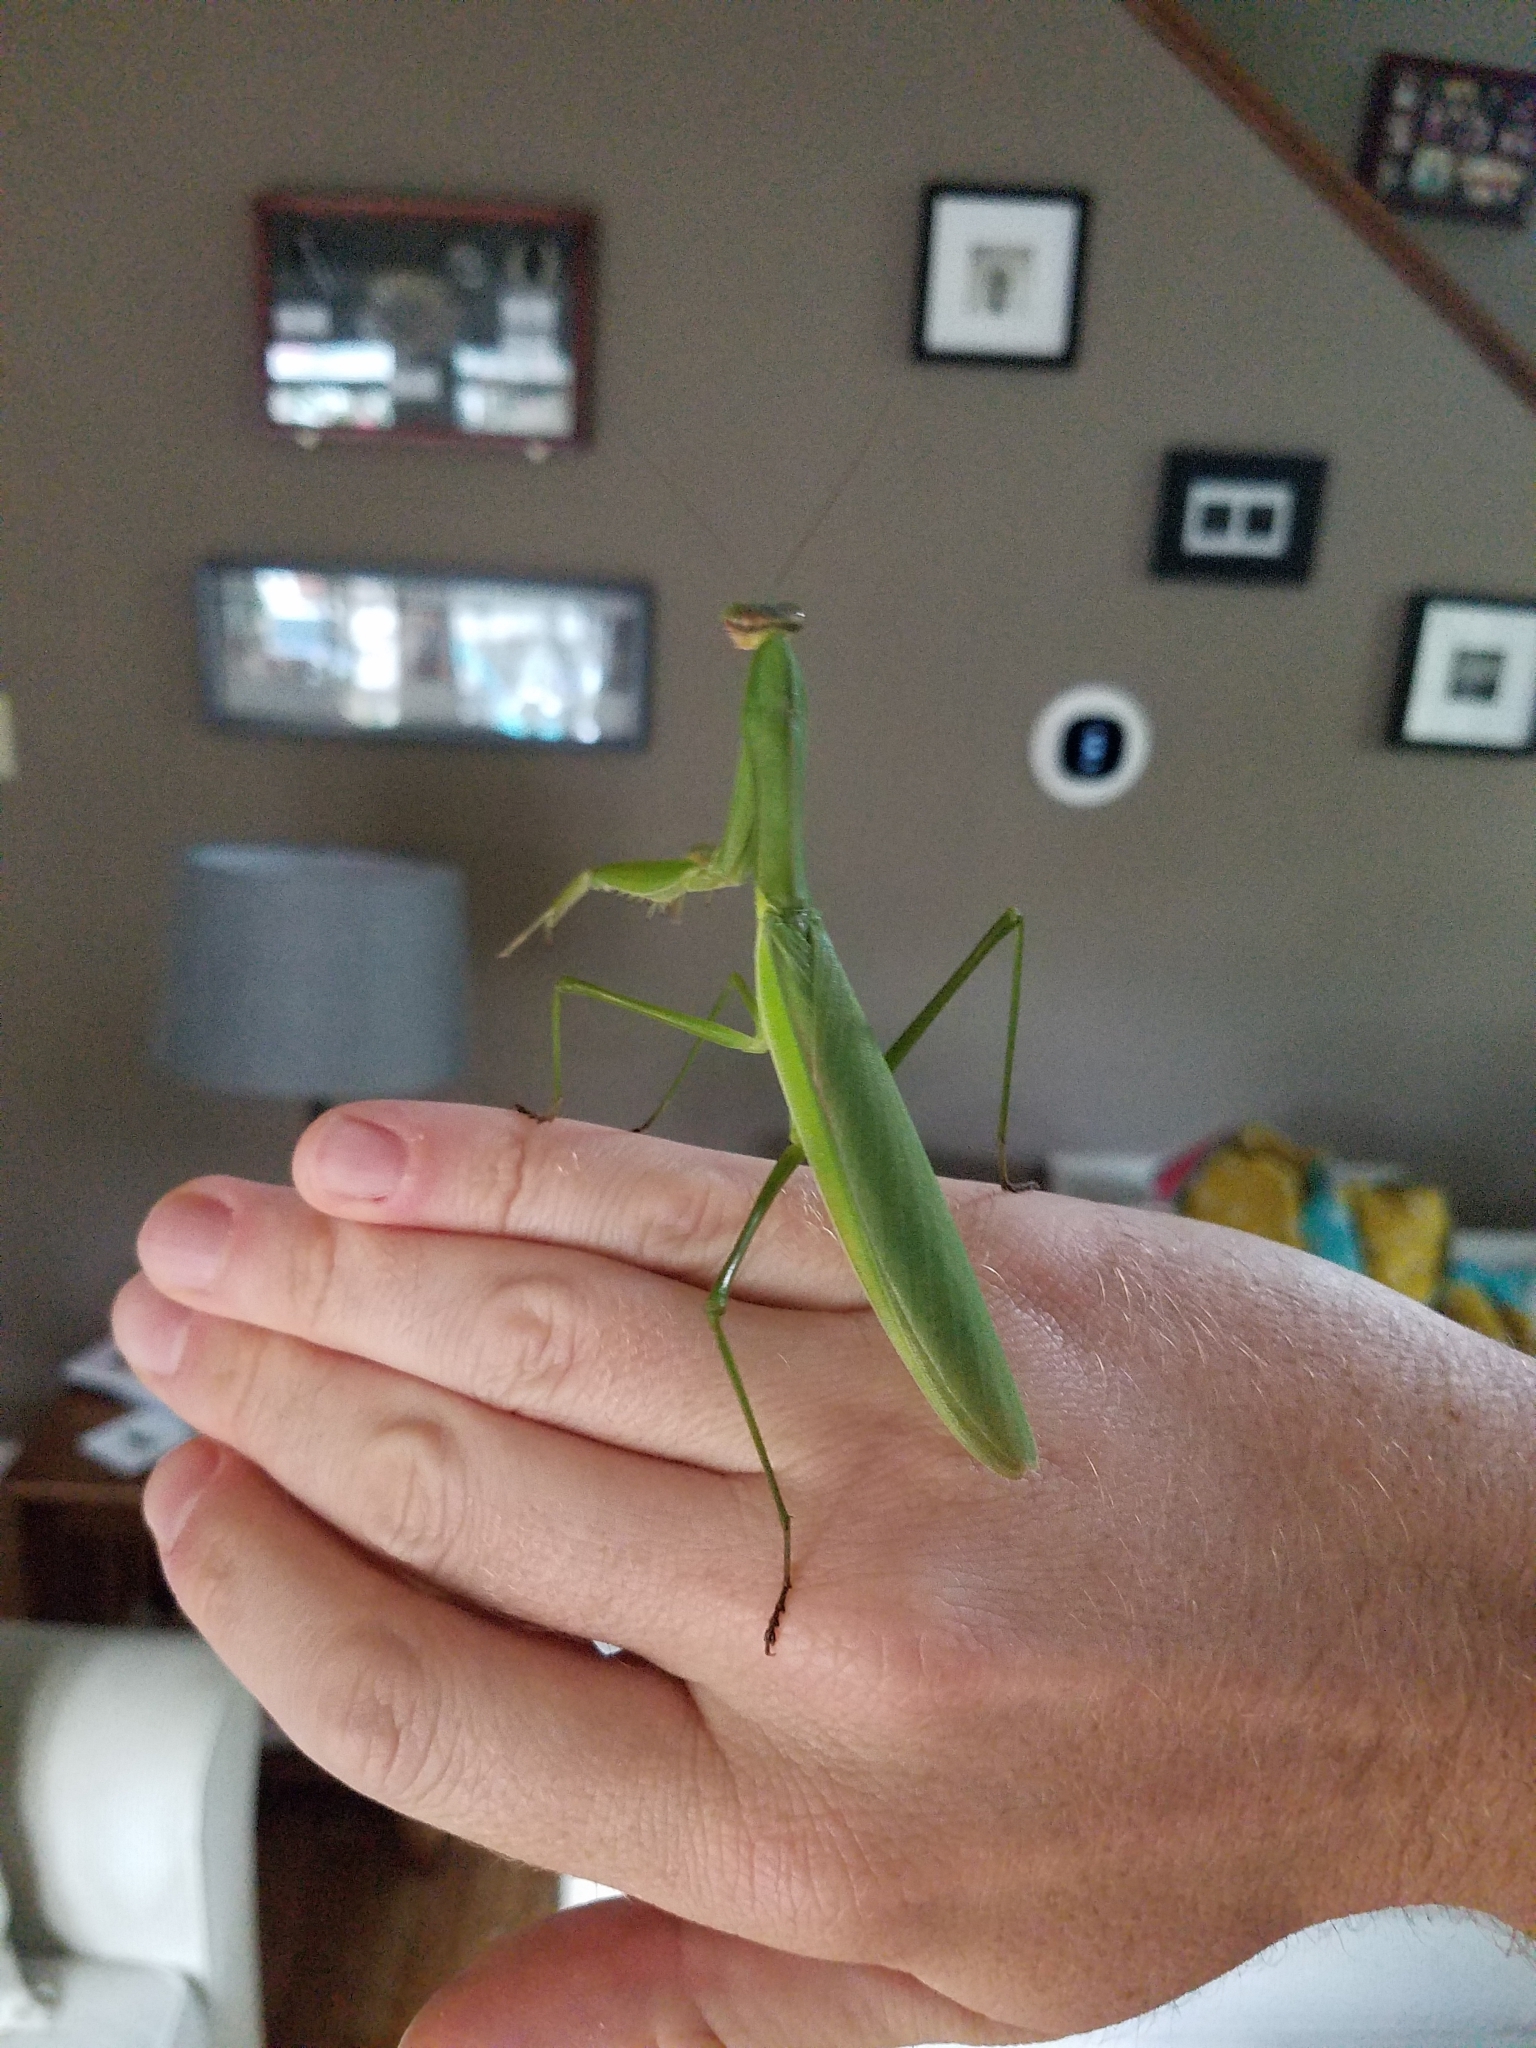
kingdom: Animalia
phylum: Arthropoda
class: Insecta
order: Mantodea
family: Mantidae
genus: Tenodera
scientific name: Tenodera sinensis
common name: Chinese mantis
